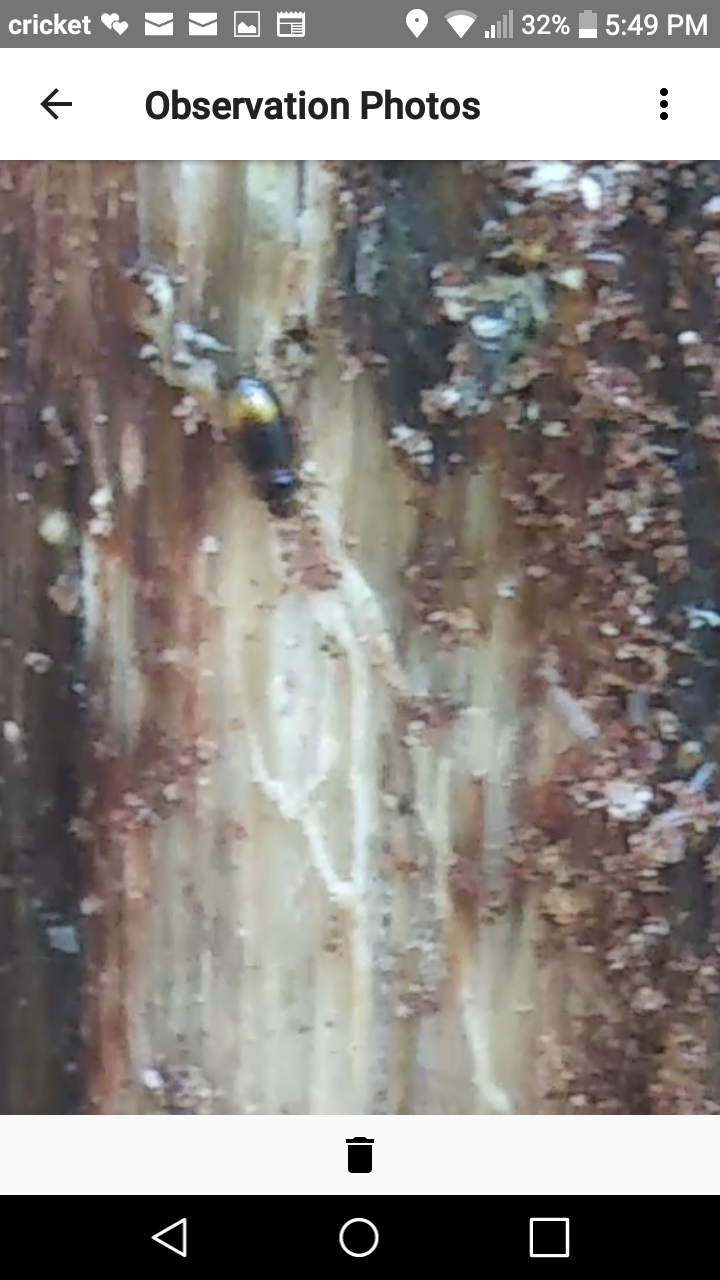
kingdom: Animalia
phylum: Arthropoda
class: Insecta
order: Coleoptera
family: Carabidae
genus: Mioptachys
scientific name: Mioptachys flavicauda
